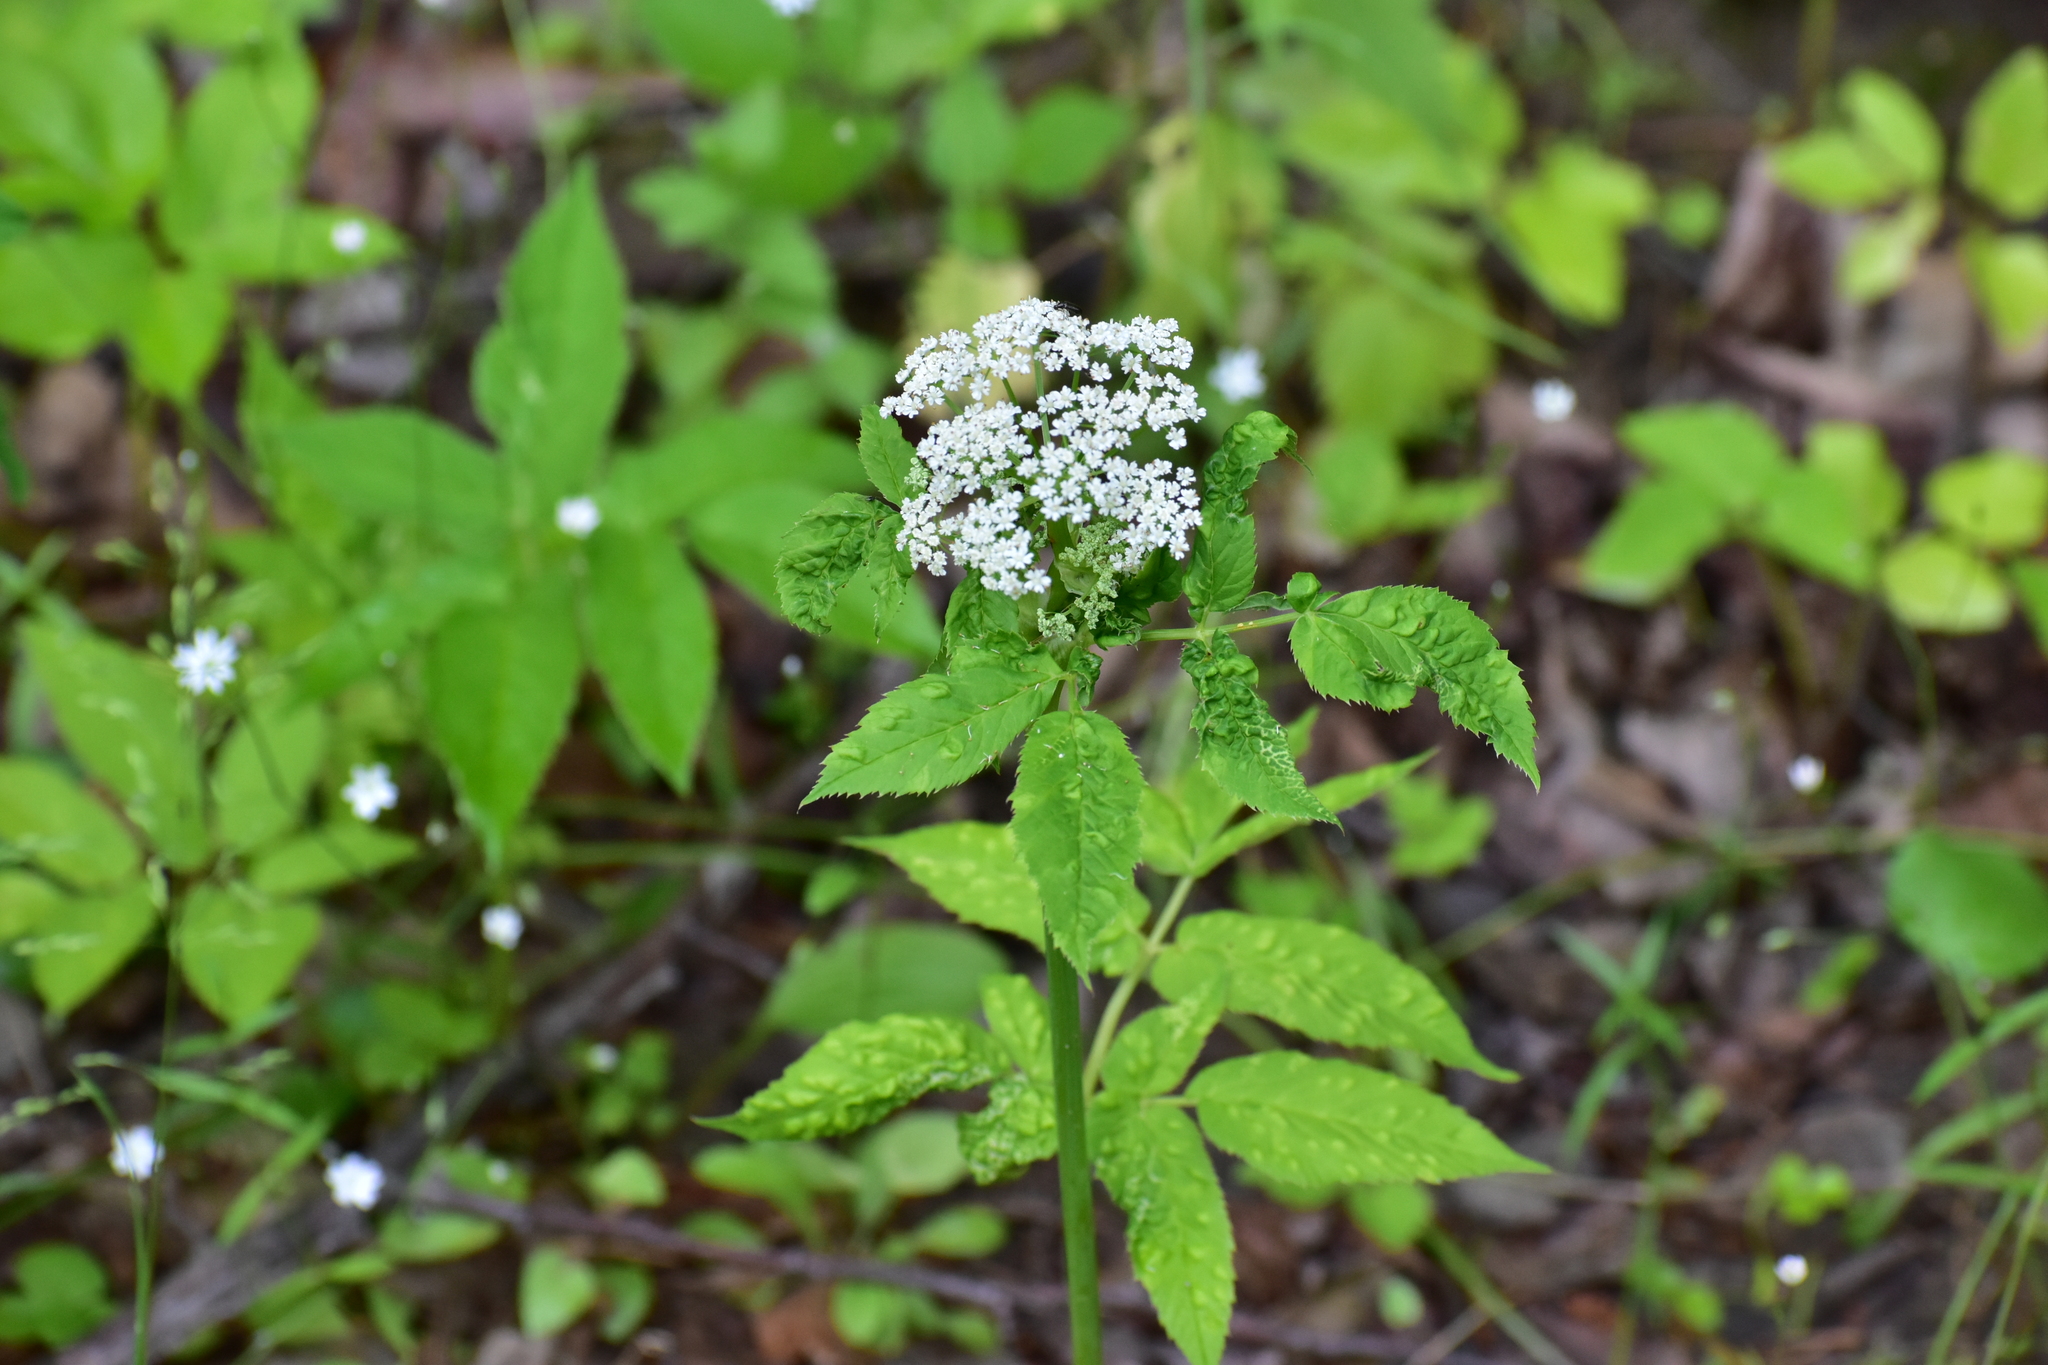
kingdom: Plantae
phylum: Tracheophyta
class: Magnoliopsida
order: Apiales
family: Apiaceae
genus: Aegopodium
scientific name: Aegopodium podagraria
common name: Ground-elder
